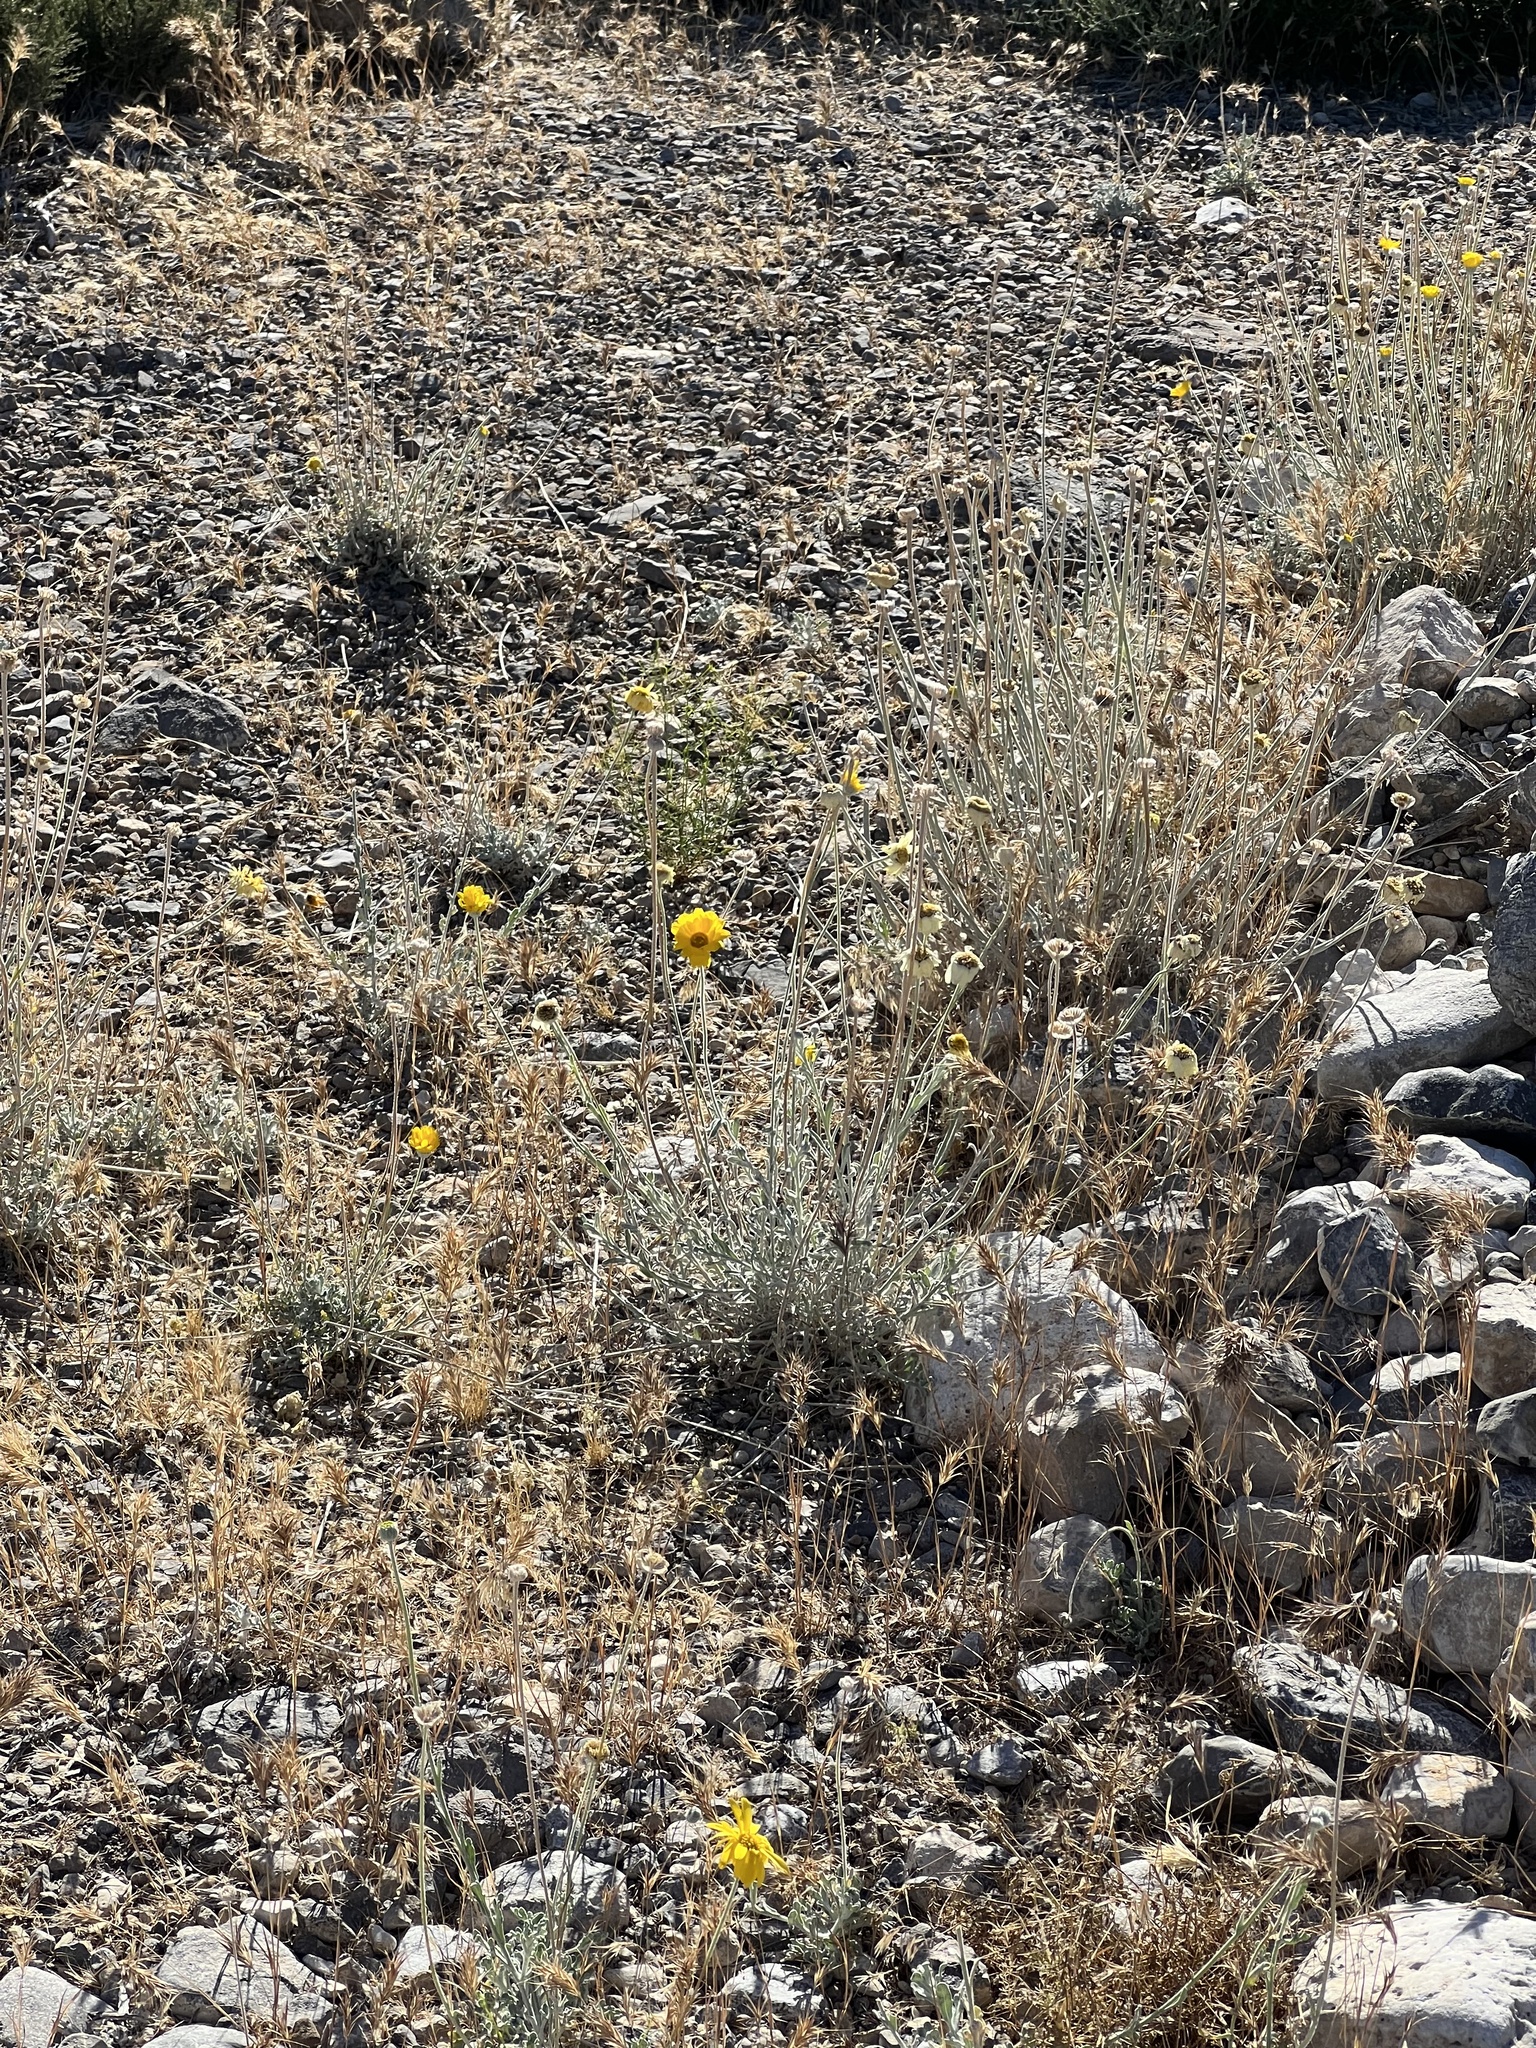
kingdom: Plantae
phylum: Tracheophyta
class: Magnoliopsida
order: Asterales
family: Asteraceae
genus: Baileya
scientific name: Baileya multiradiata
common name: Desert-marigold
